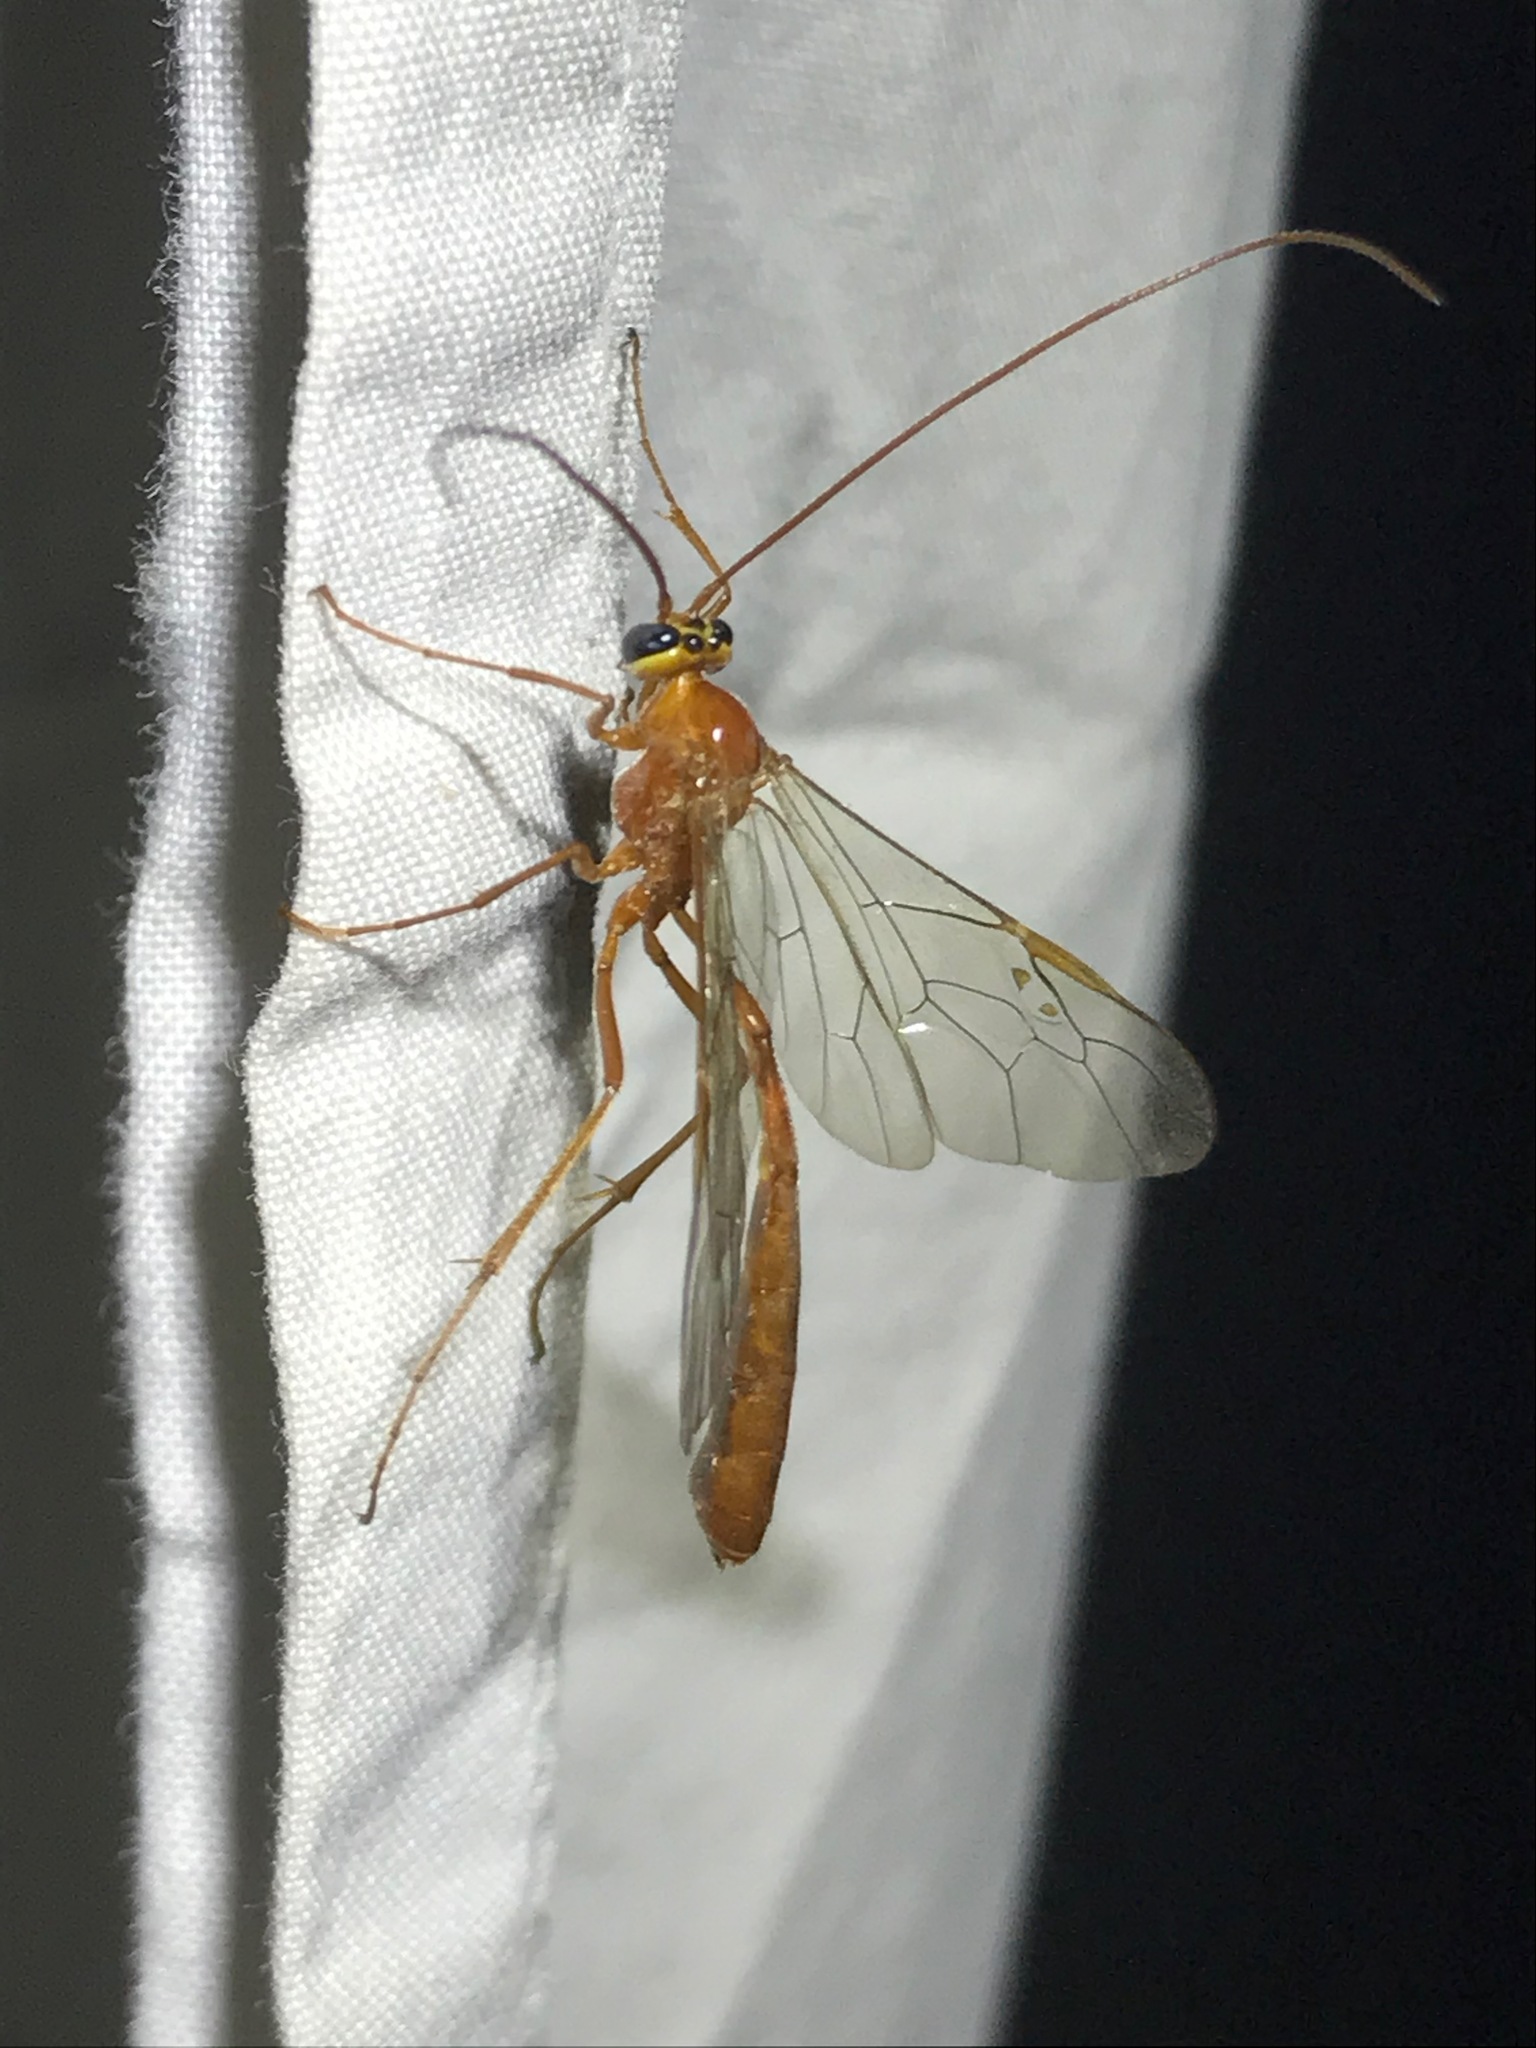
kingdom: Animalia
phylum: Arthropoda
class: Insecta
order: Hymenoptera
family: Ichneumonidae
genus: Enicospilus
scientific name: Enicospilus purgatus
